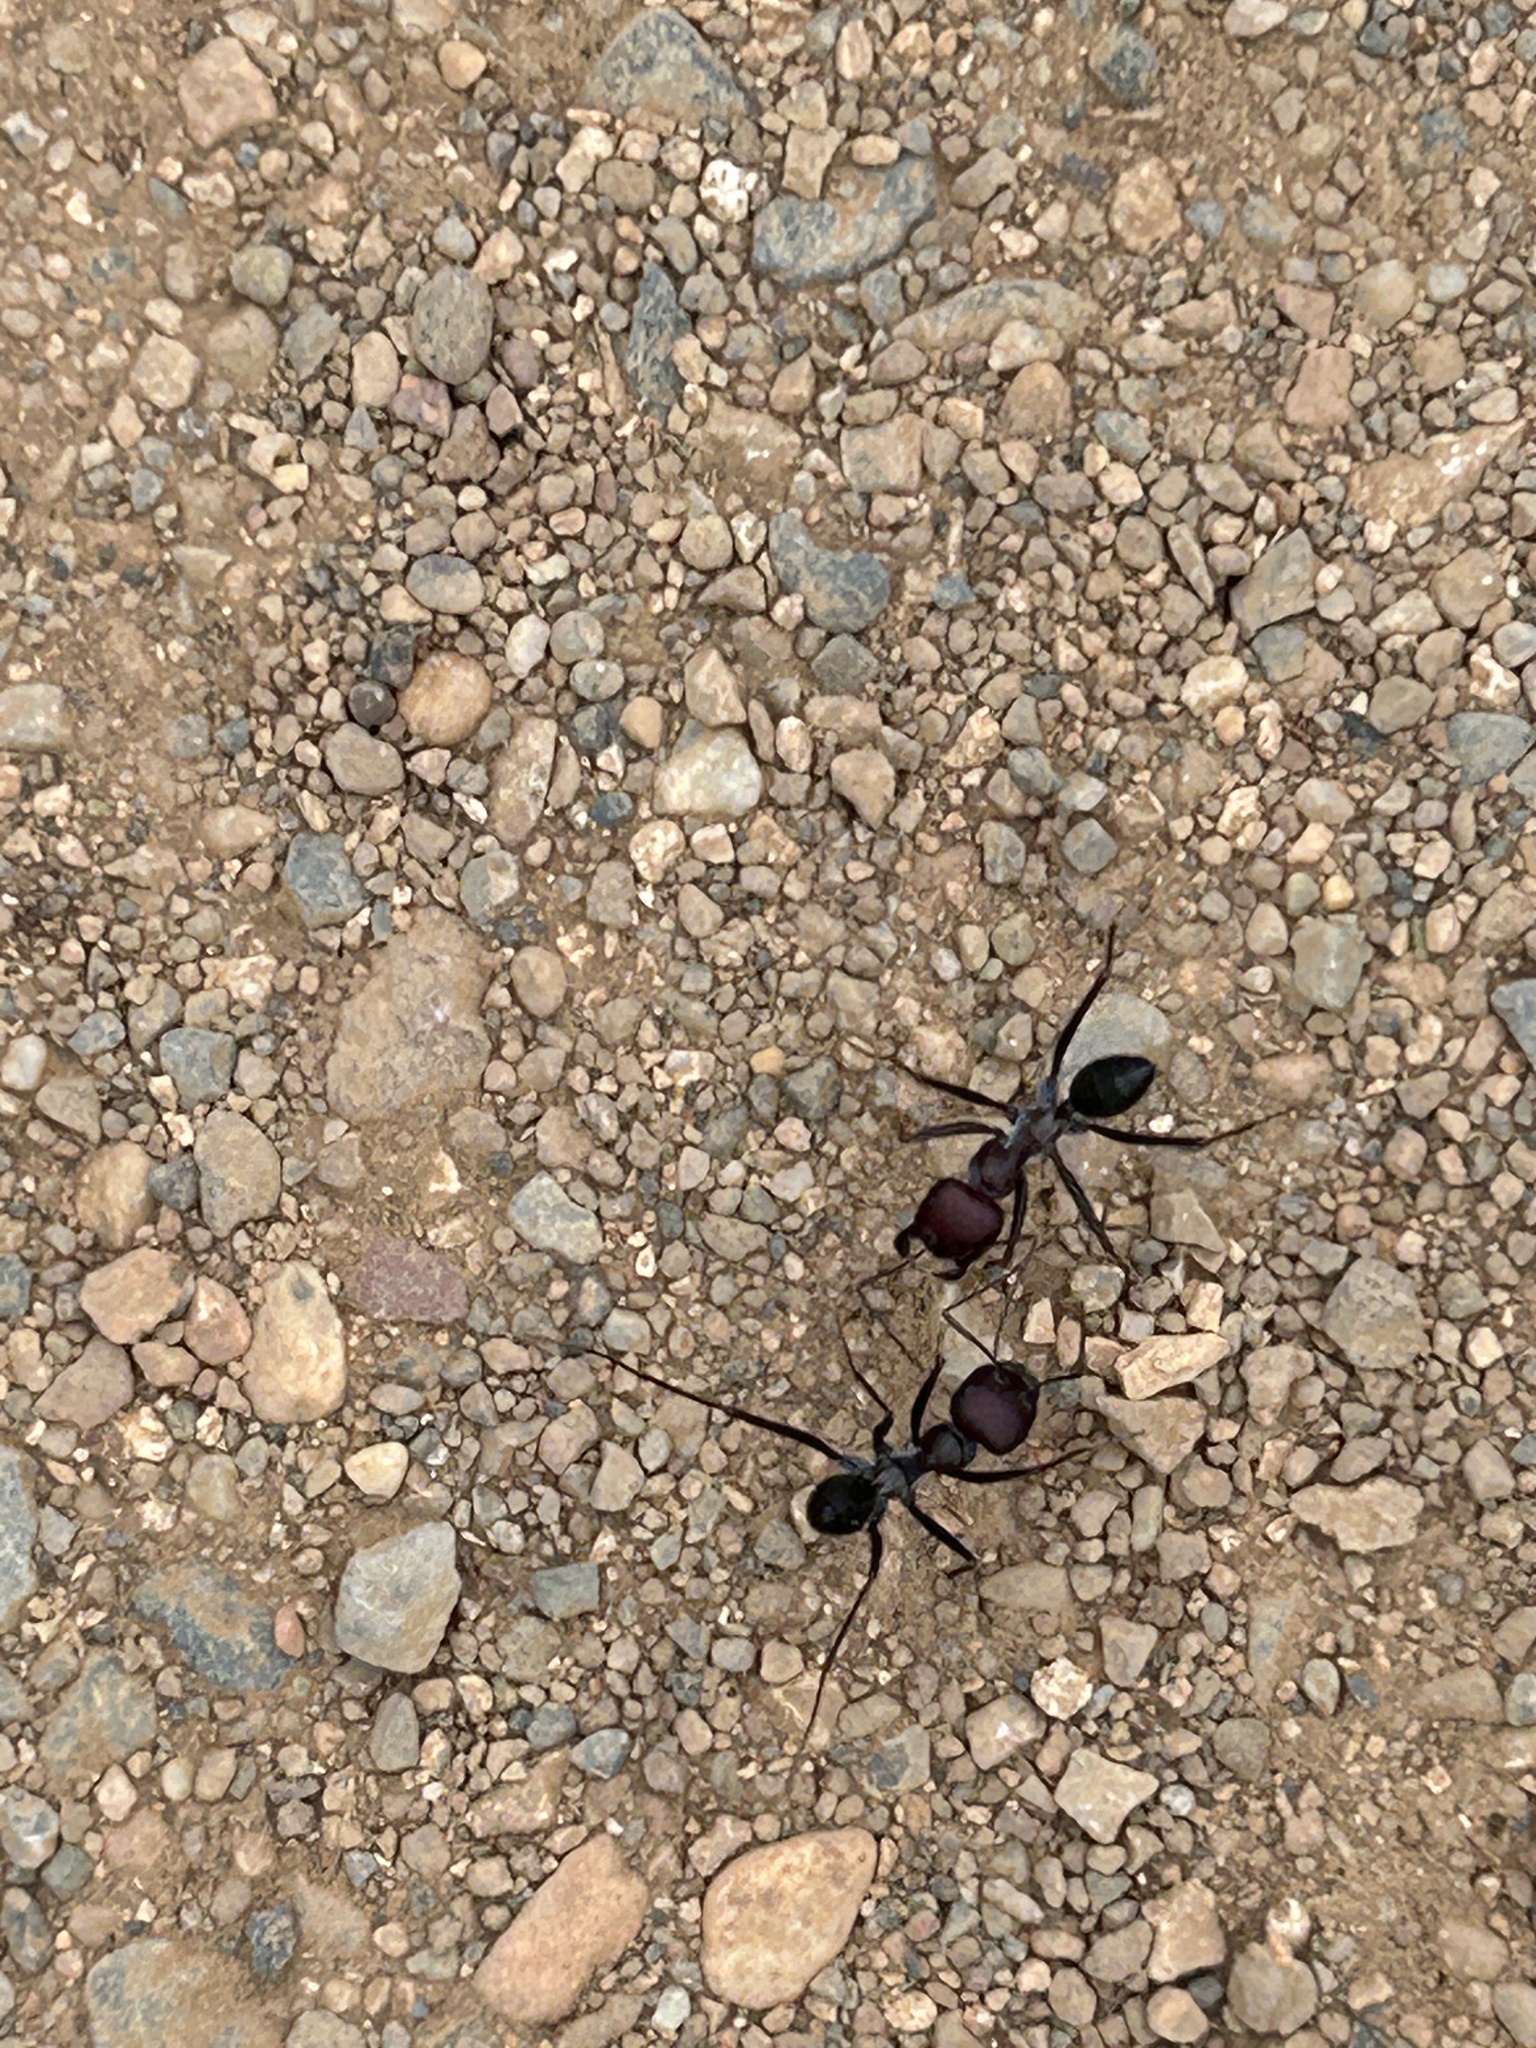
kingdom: Animalia
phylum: Arthropoda
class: Insecta
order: Hymenoptera
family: Formicidae
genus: Cataglyphis
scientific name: Cataglyphis nodus
